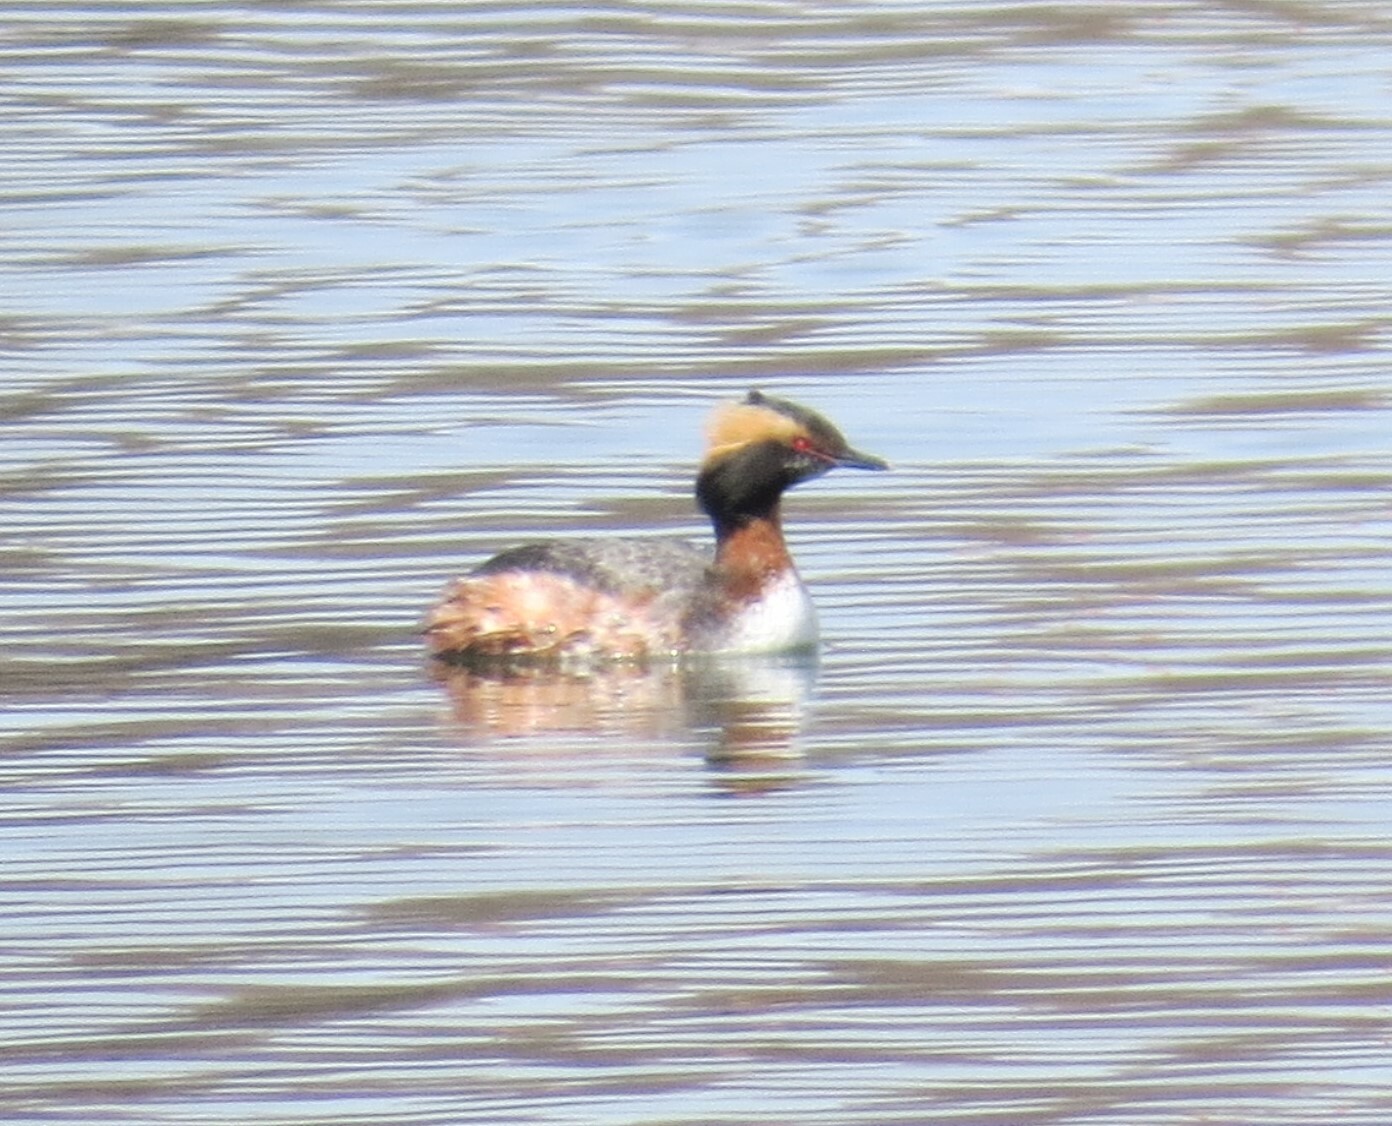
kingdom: Animalia
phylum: Chordata
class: Aves
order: Podicipediformes
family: Podicipedidae
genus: Podiceps
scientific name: Podiceps auritus
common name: Horned grebe
